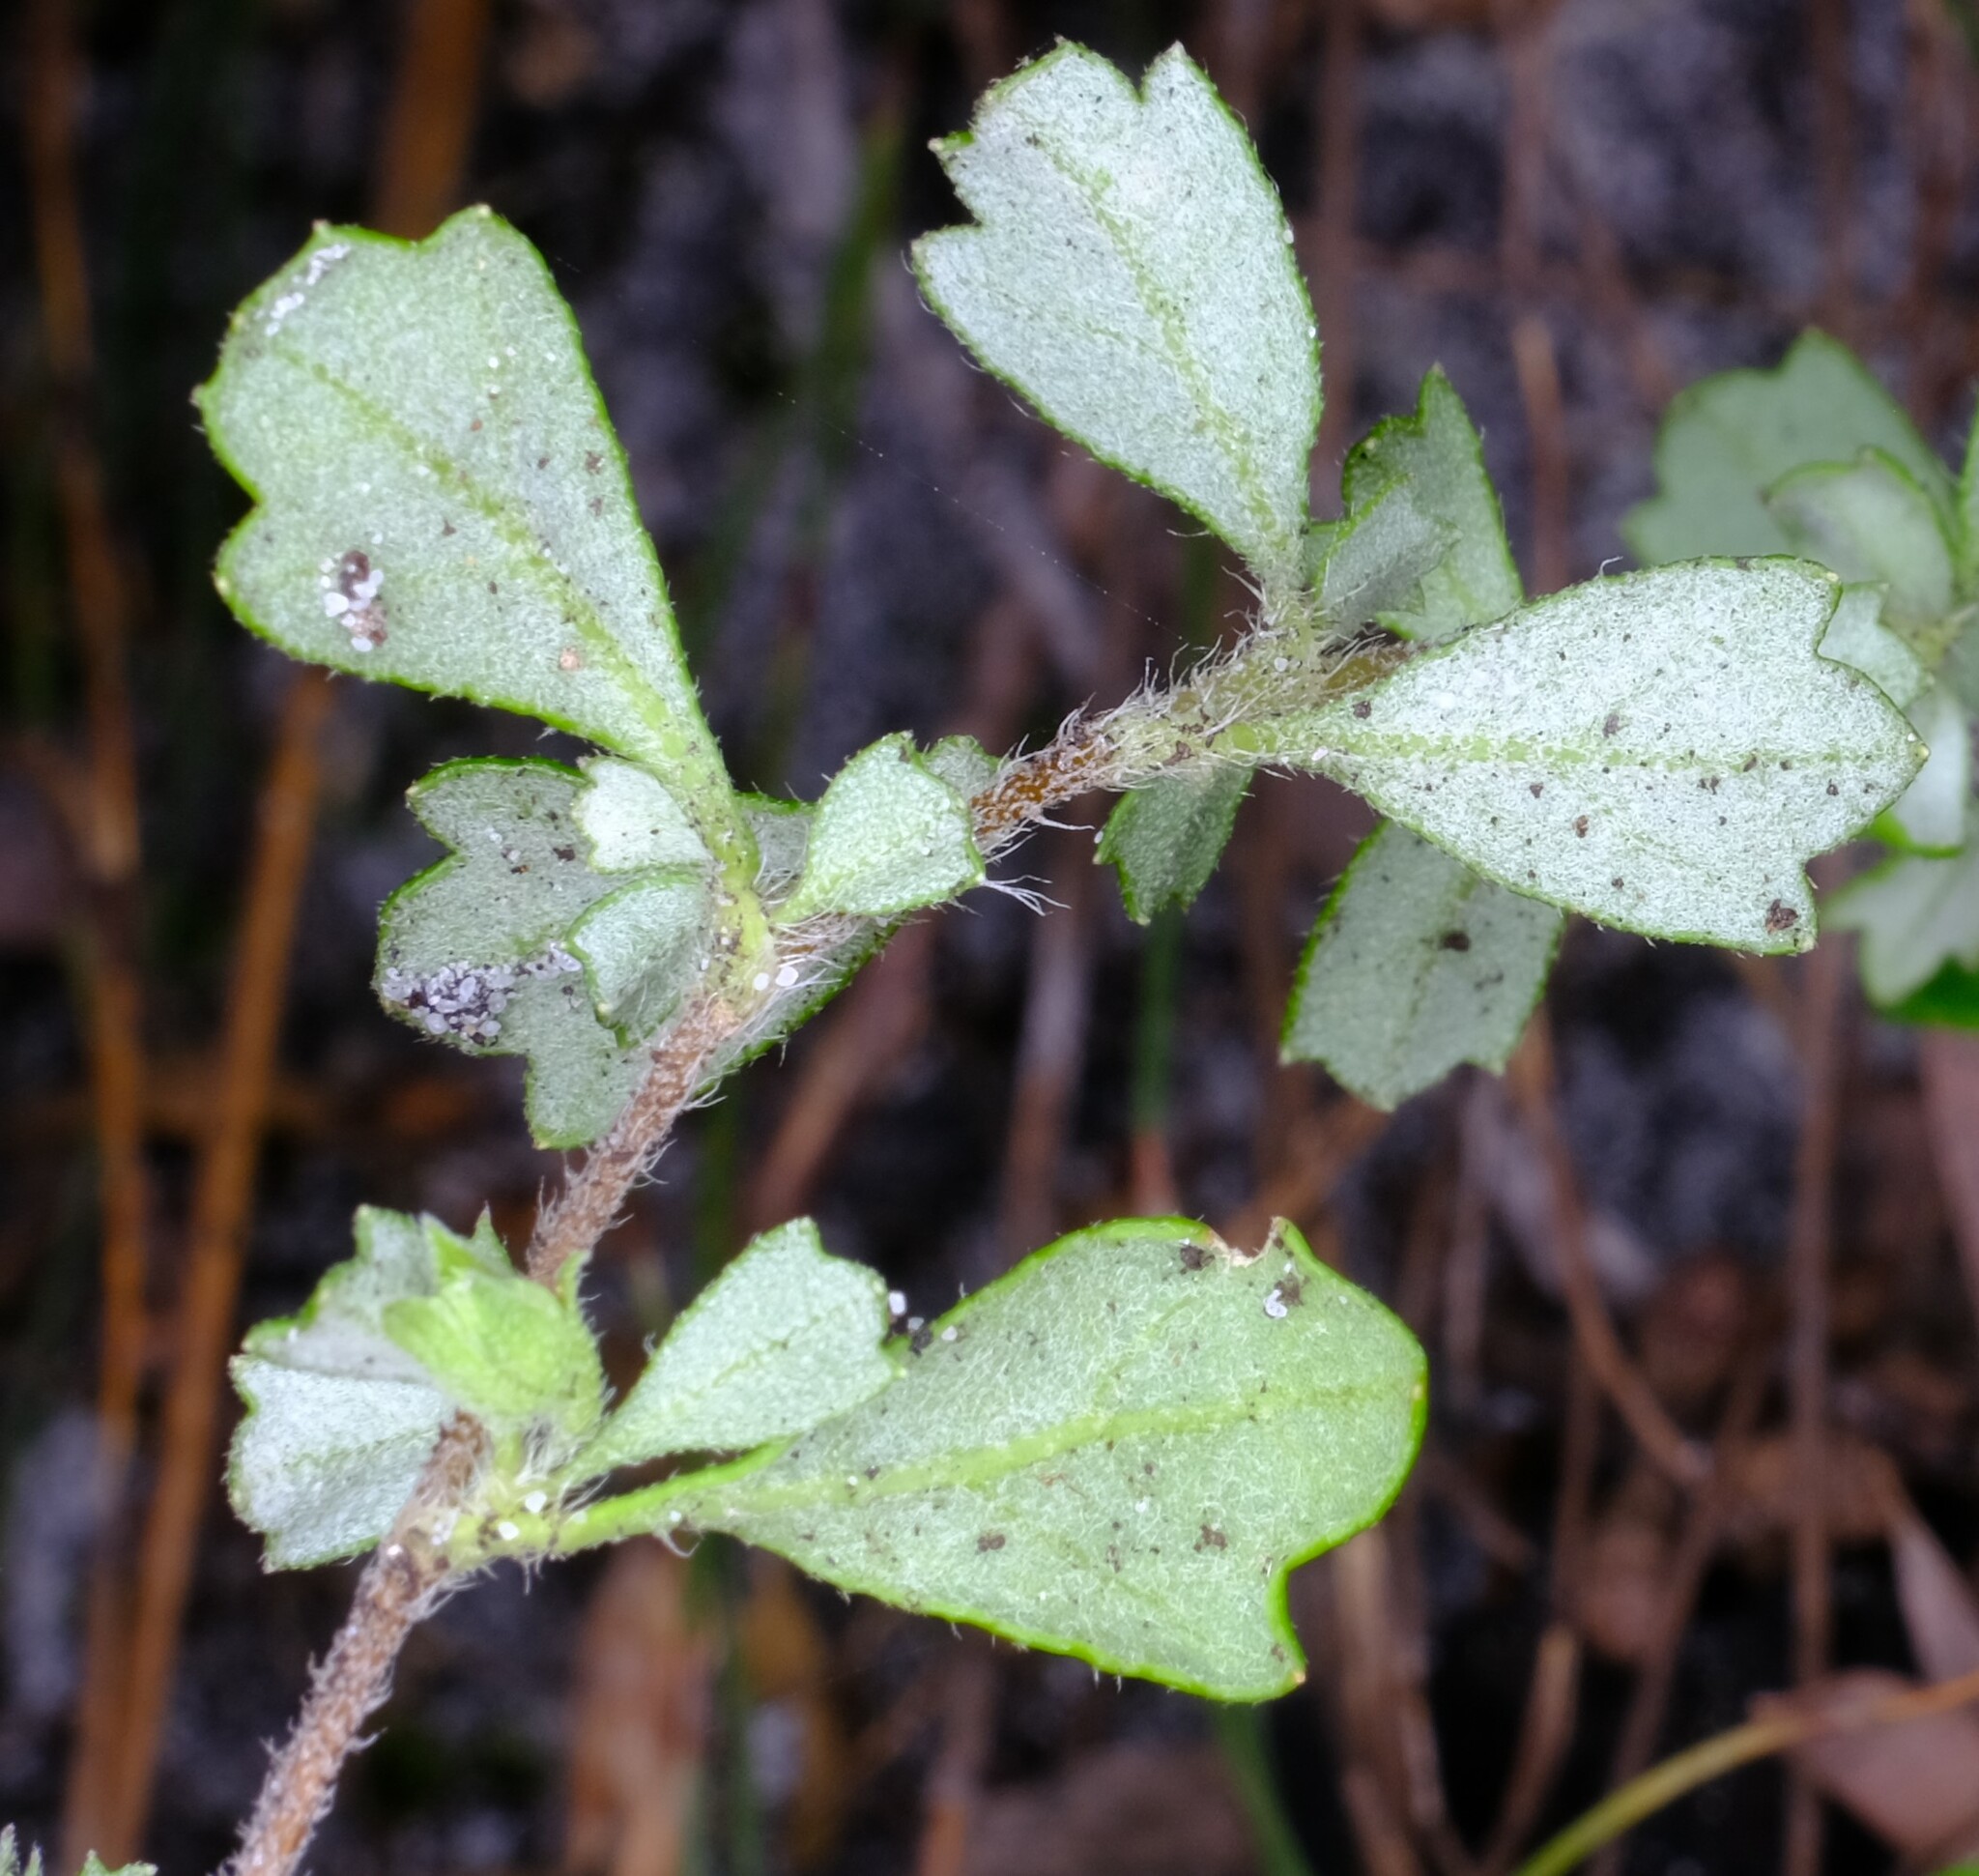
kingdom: Plantae
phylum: Tracheophyta
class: Magnoliopsida
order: Apiales
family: Apiaceae
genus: Xanthosia
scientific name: Xanthosia tridentata
